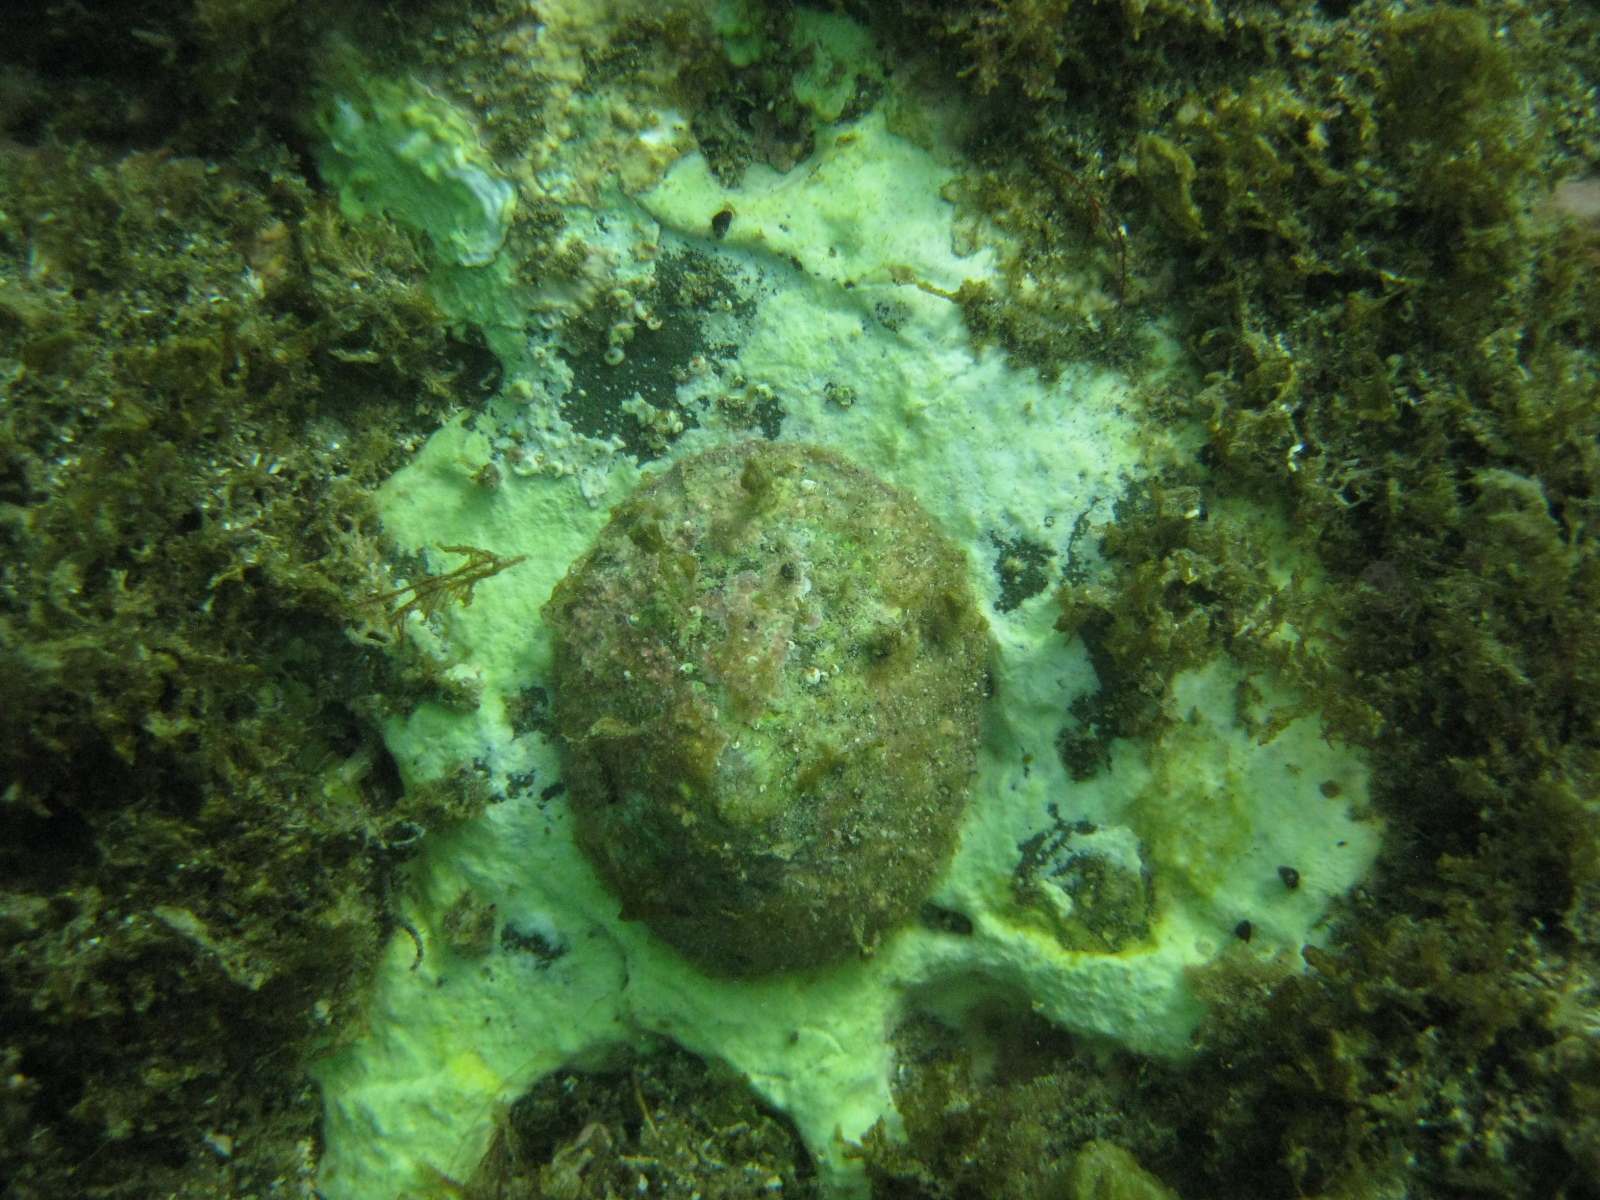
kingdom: Animalia
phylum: Mollusca
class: Gastropoda
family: Nacellidae
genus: Cellana
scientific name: Cellana stellifera
